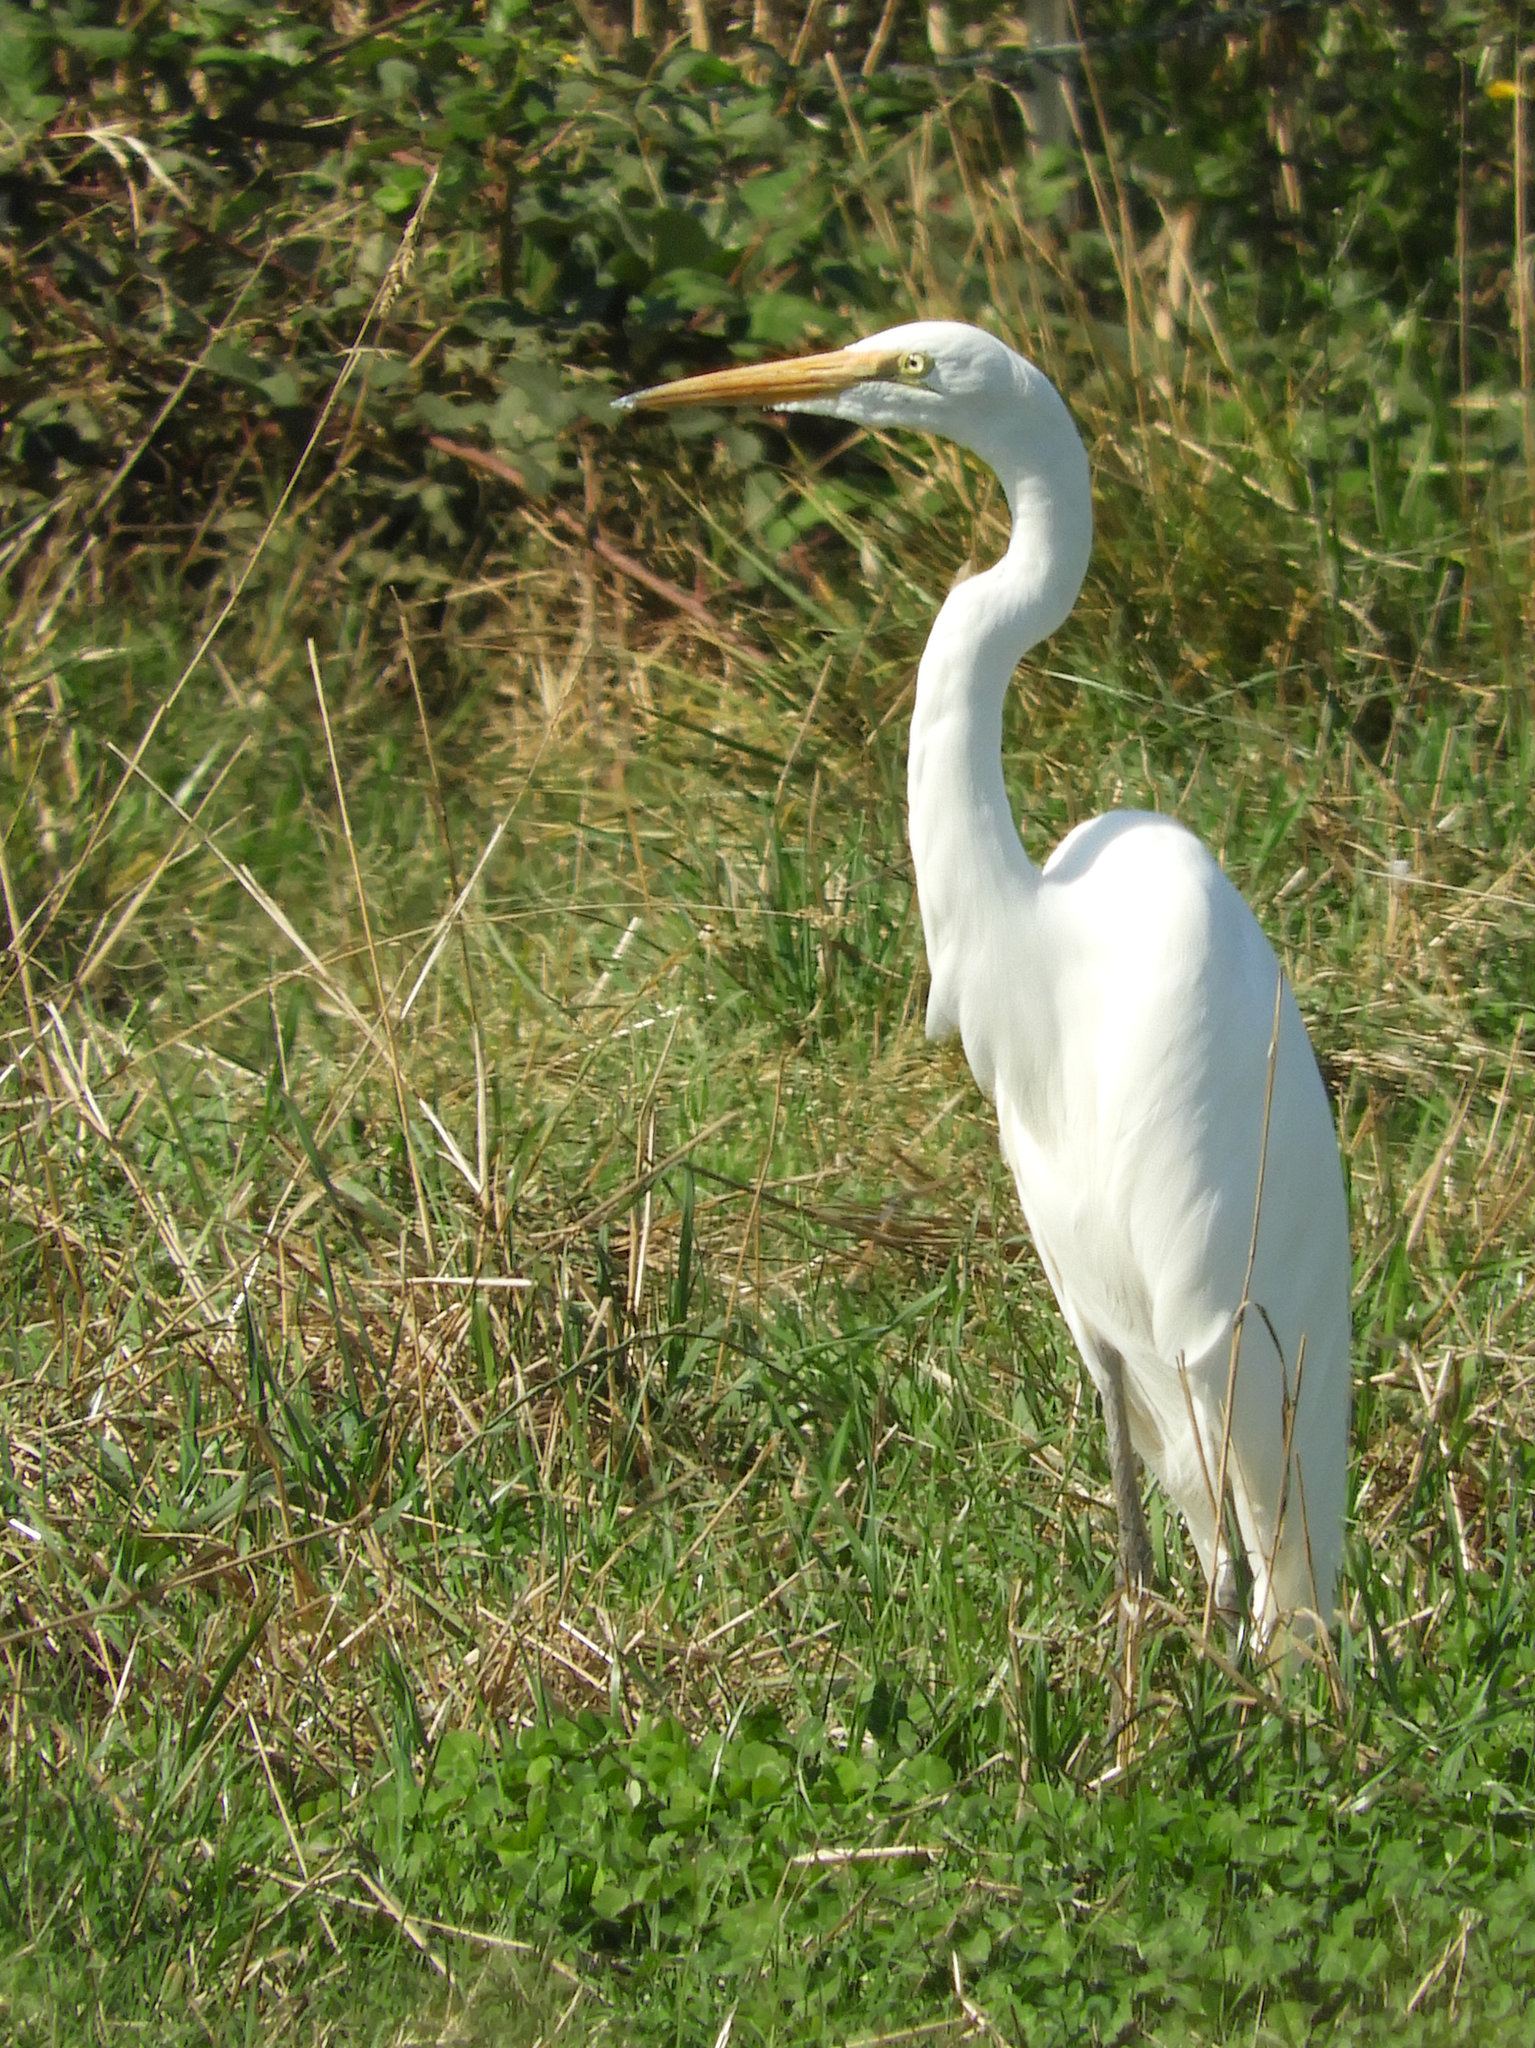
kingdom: Animalia
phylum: Chordata
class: Aves
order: Pelecaniformes
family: Ardeidae
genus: Ardea
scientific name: Ardea alba
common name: Great egret
